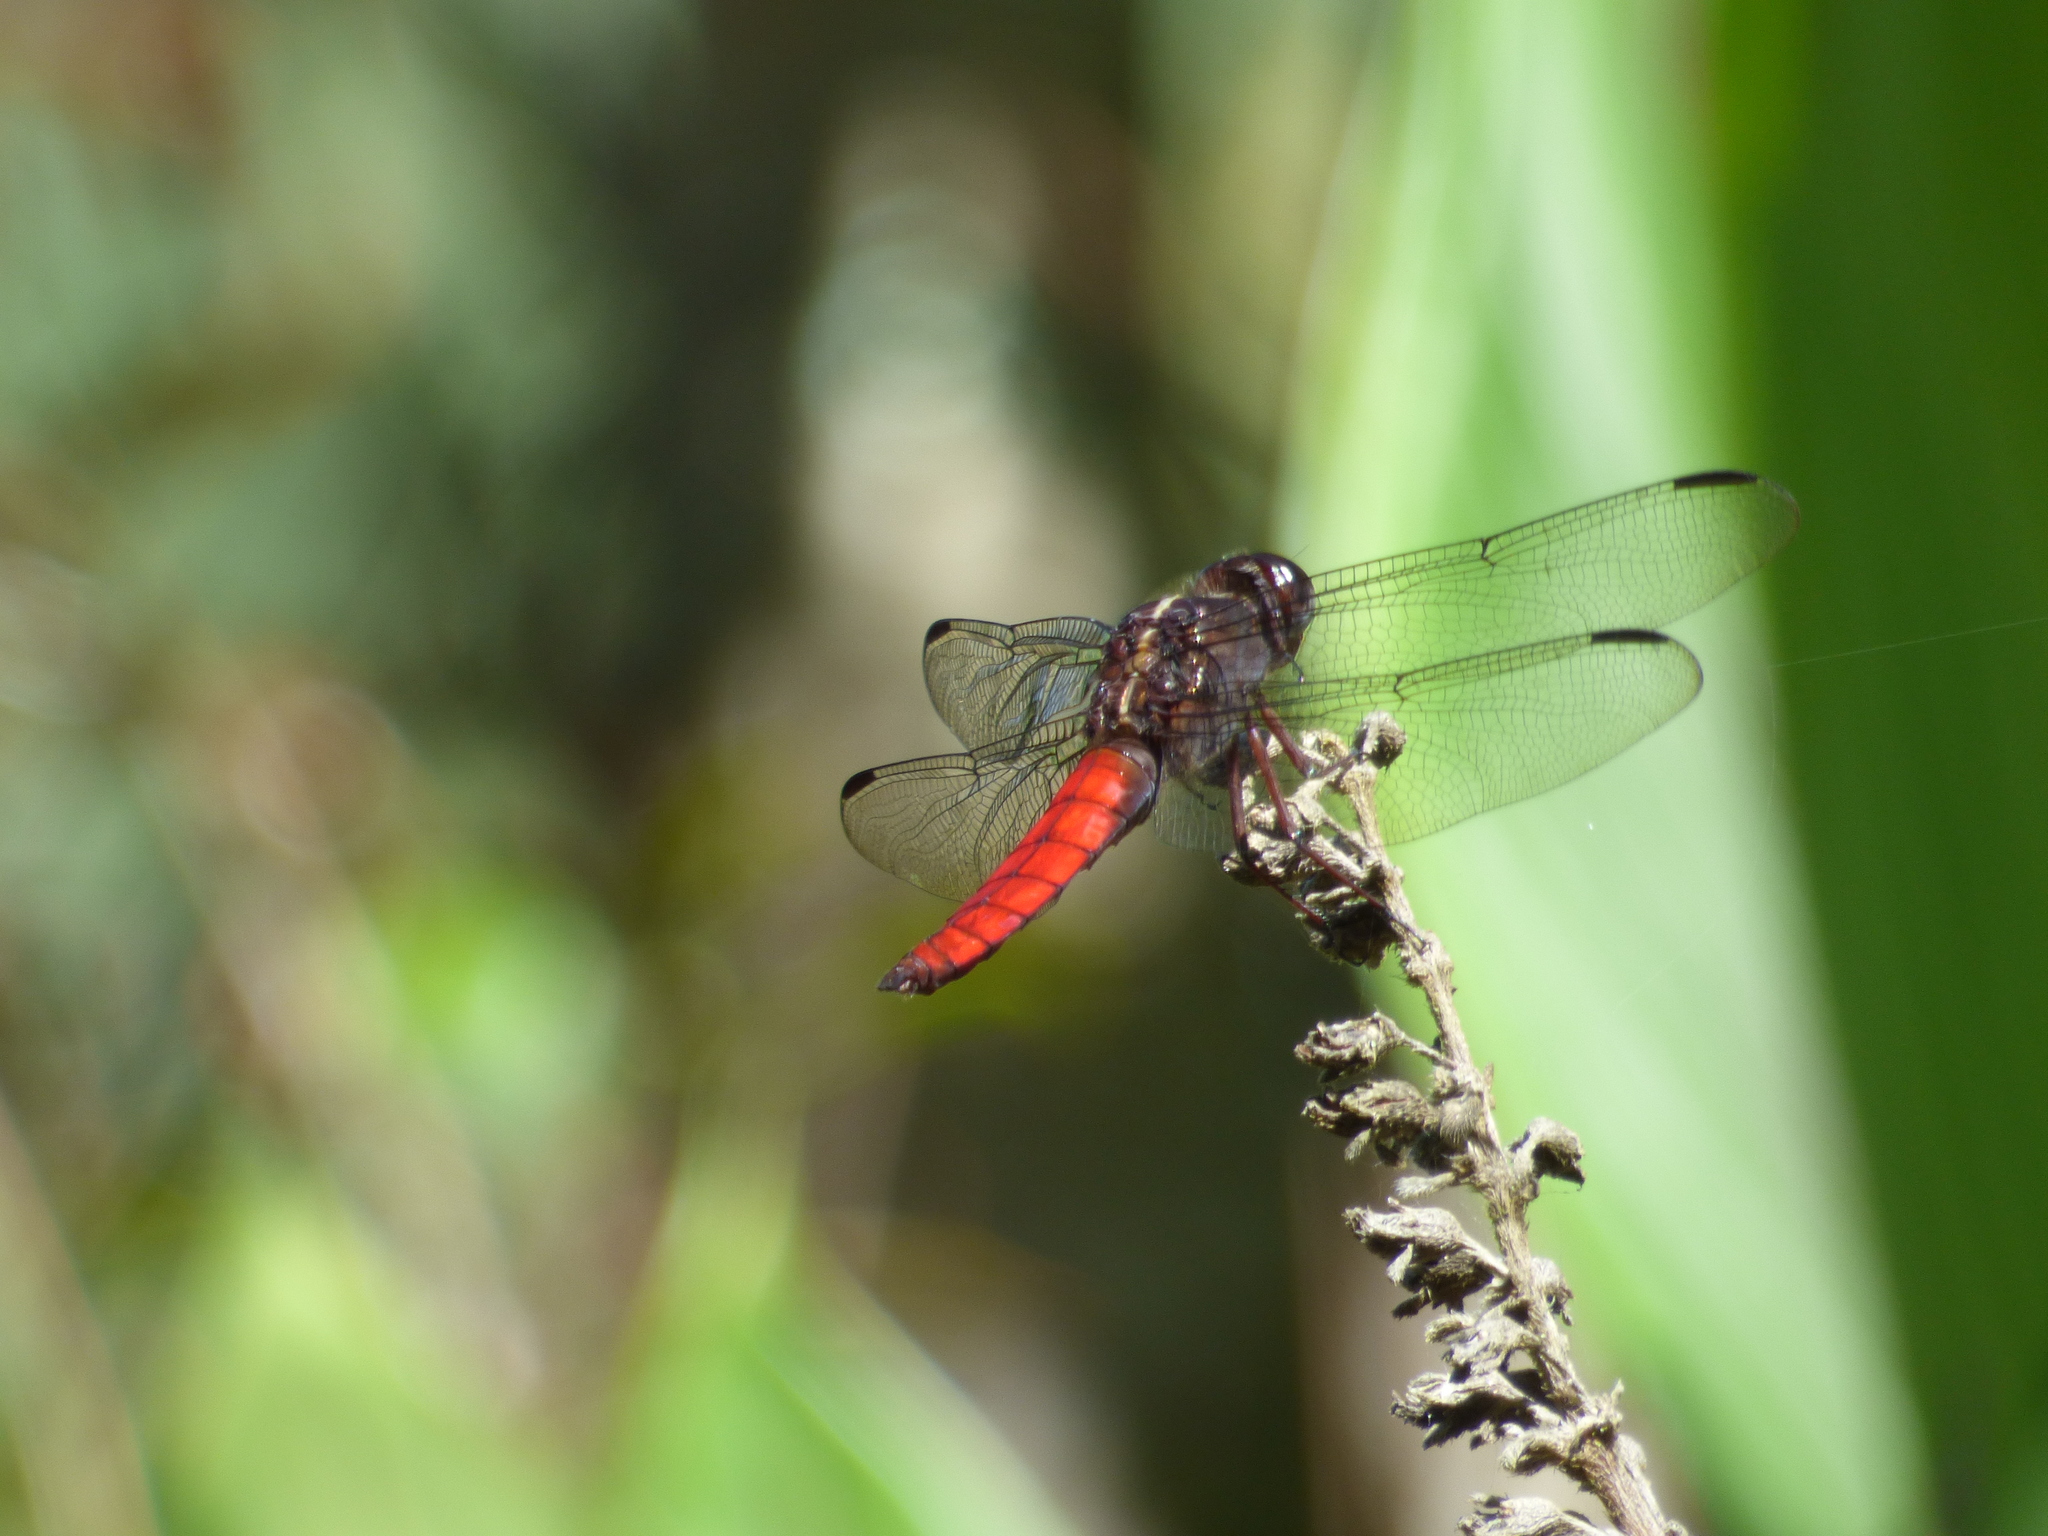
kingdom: Animalia
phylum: Arthropoda
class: Insecta
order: Odonata
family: Libellulidae
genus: Libellula
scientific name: Libellula herculea
